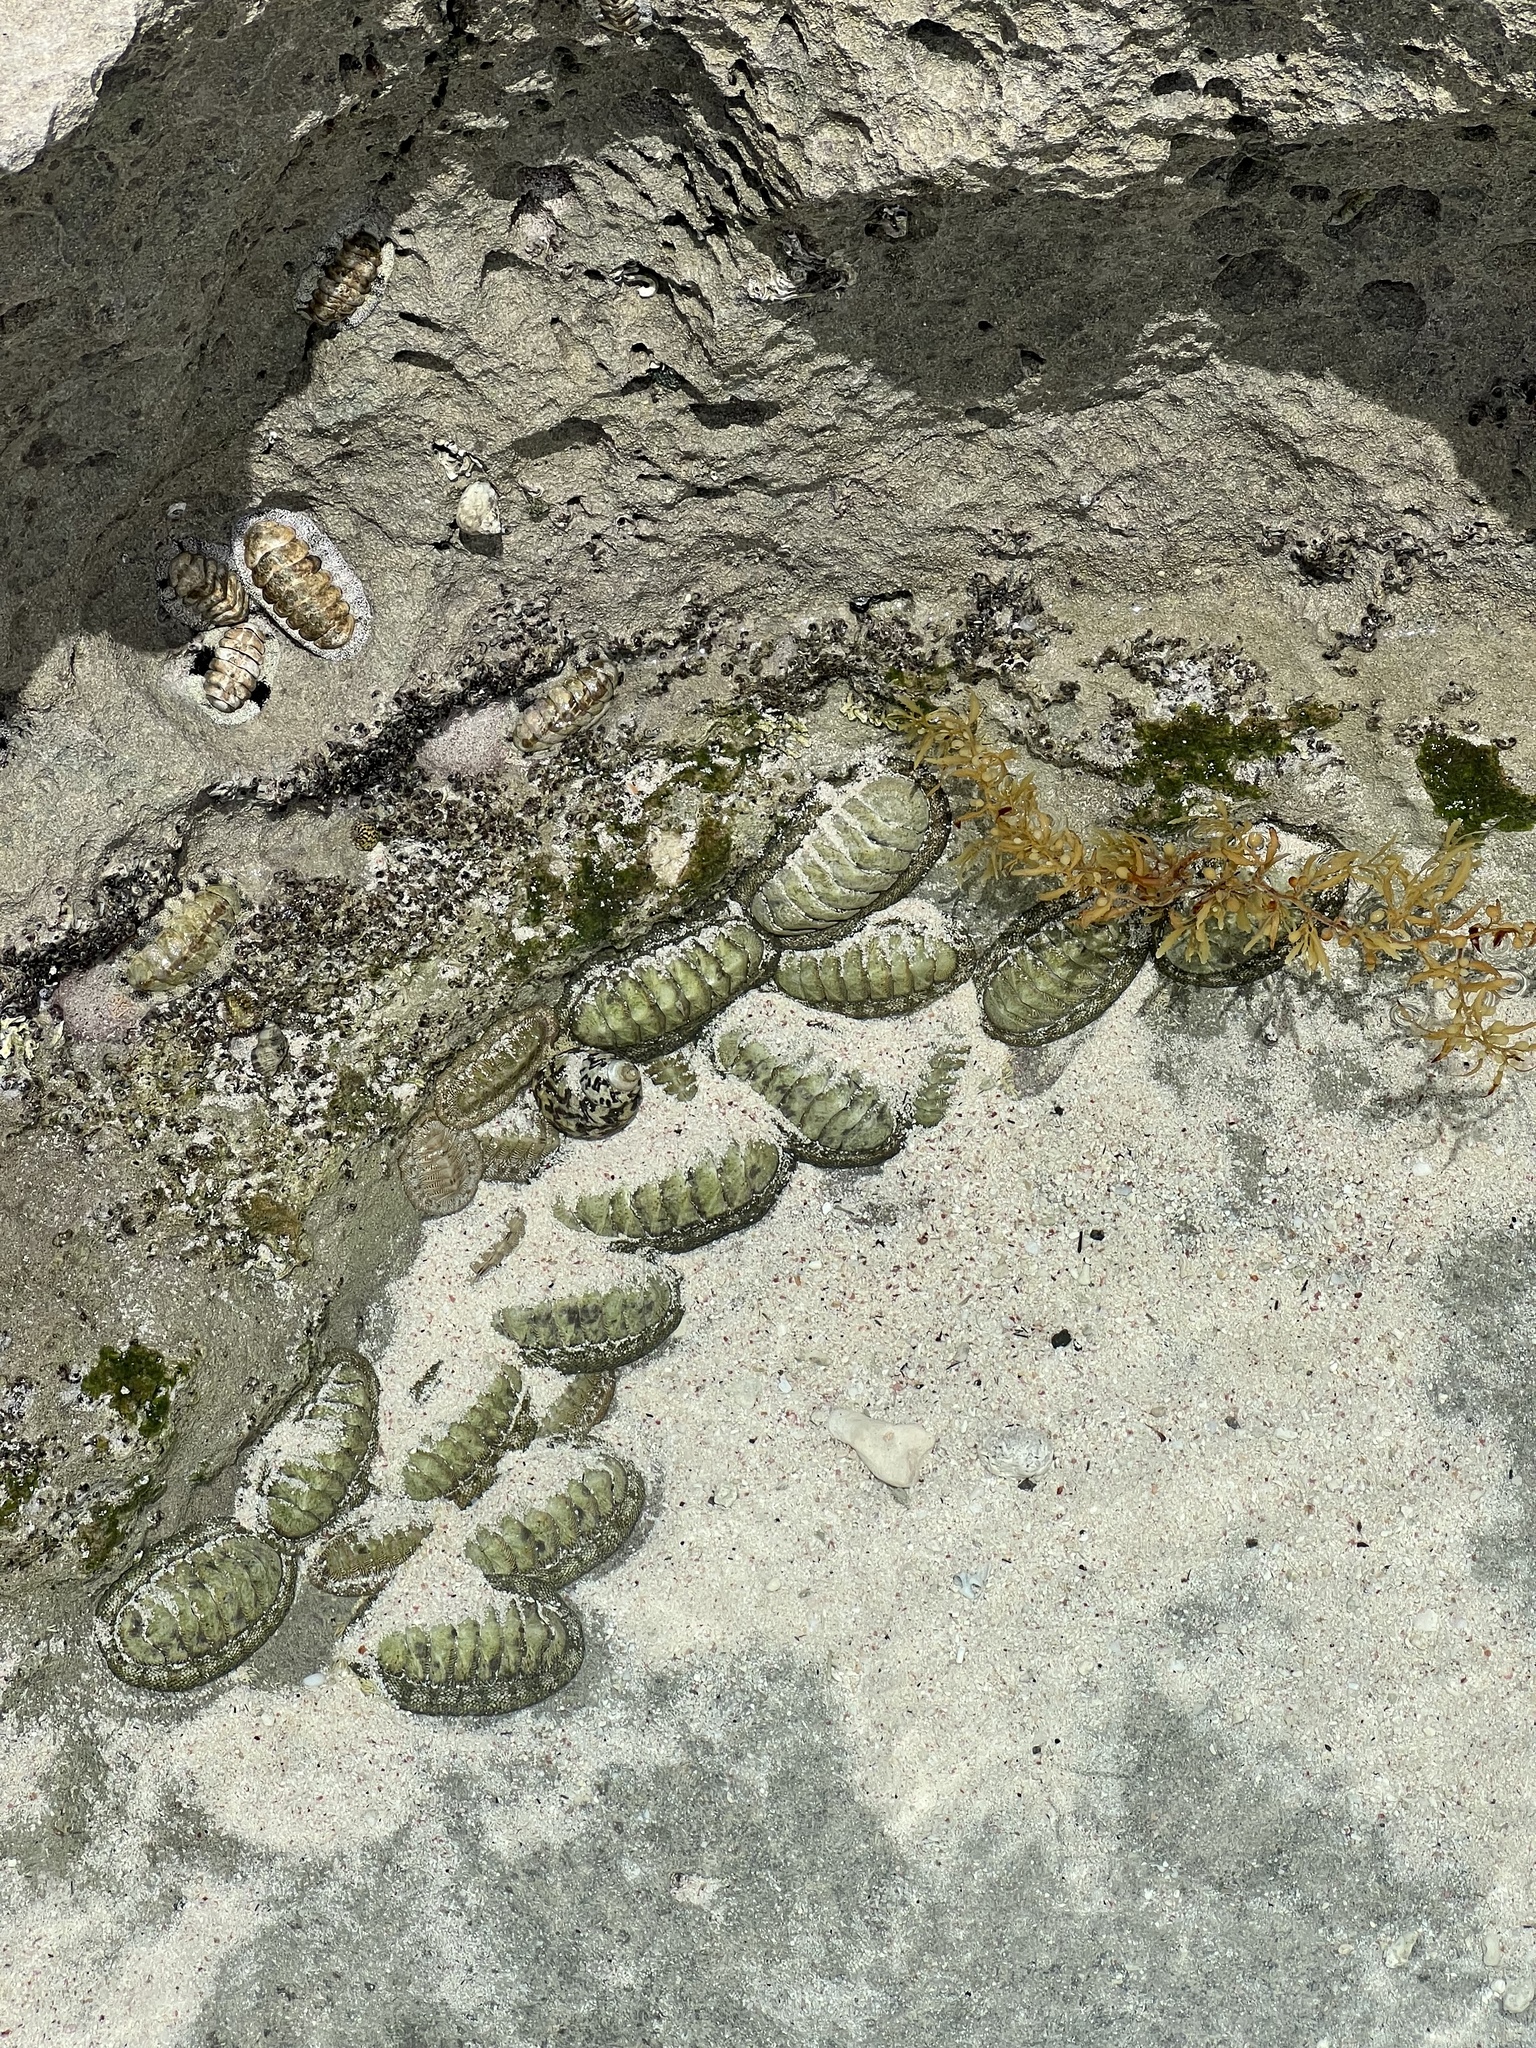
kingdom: Animalia
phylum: Mollusca
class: Polyplacophora
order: Chitonida
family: Chitonidae
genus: Chiton
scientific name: Chiton tuberculatus
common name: West indian green chiton
